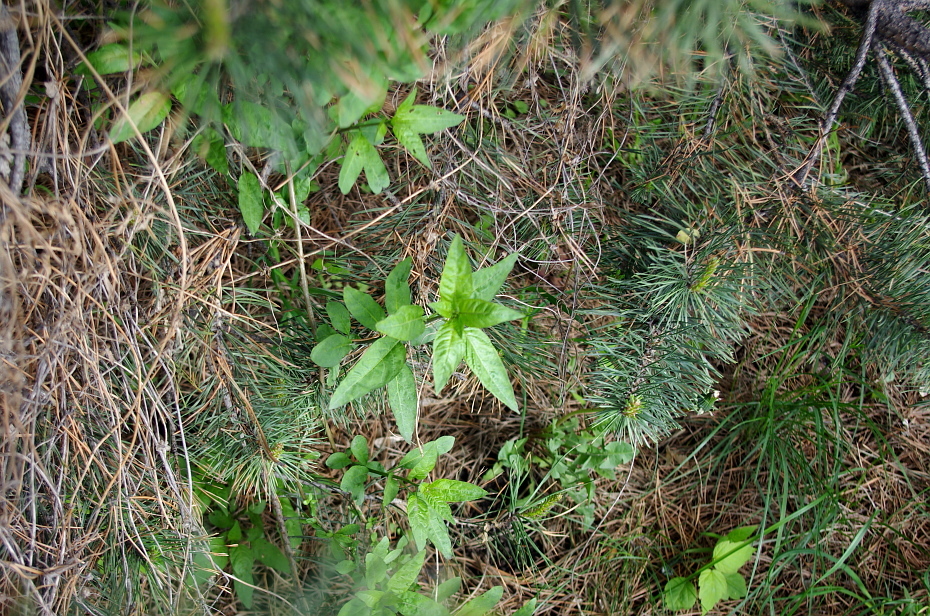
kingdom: Plantae
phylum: Tracheophyta
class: Magnoliopsida
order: Solanales
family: Solanaceae
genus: Solanum
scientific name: Solanum dulcamara
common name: Climbing nightshade
